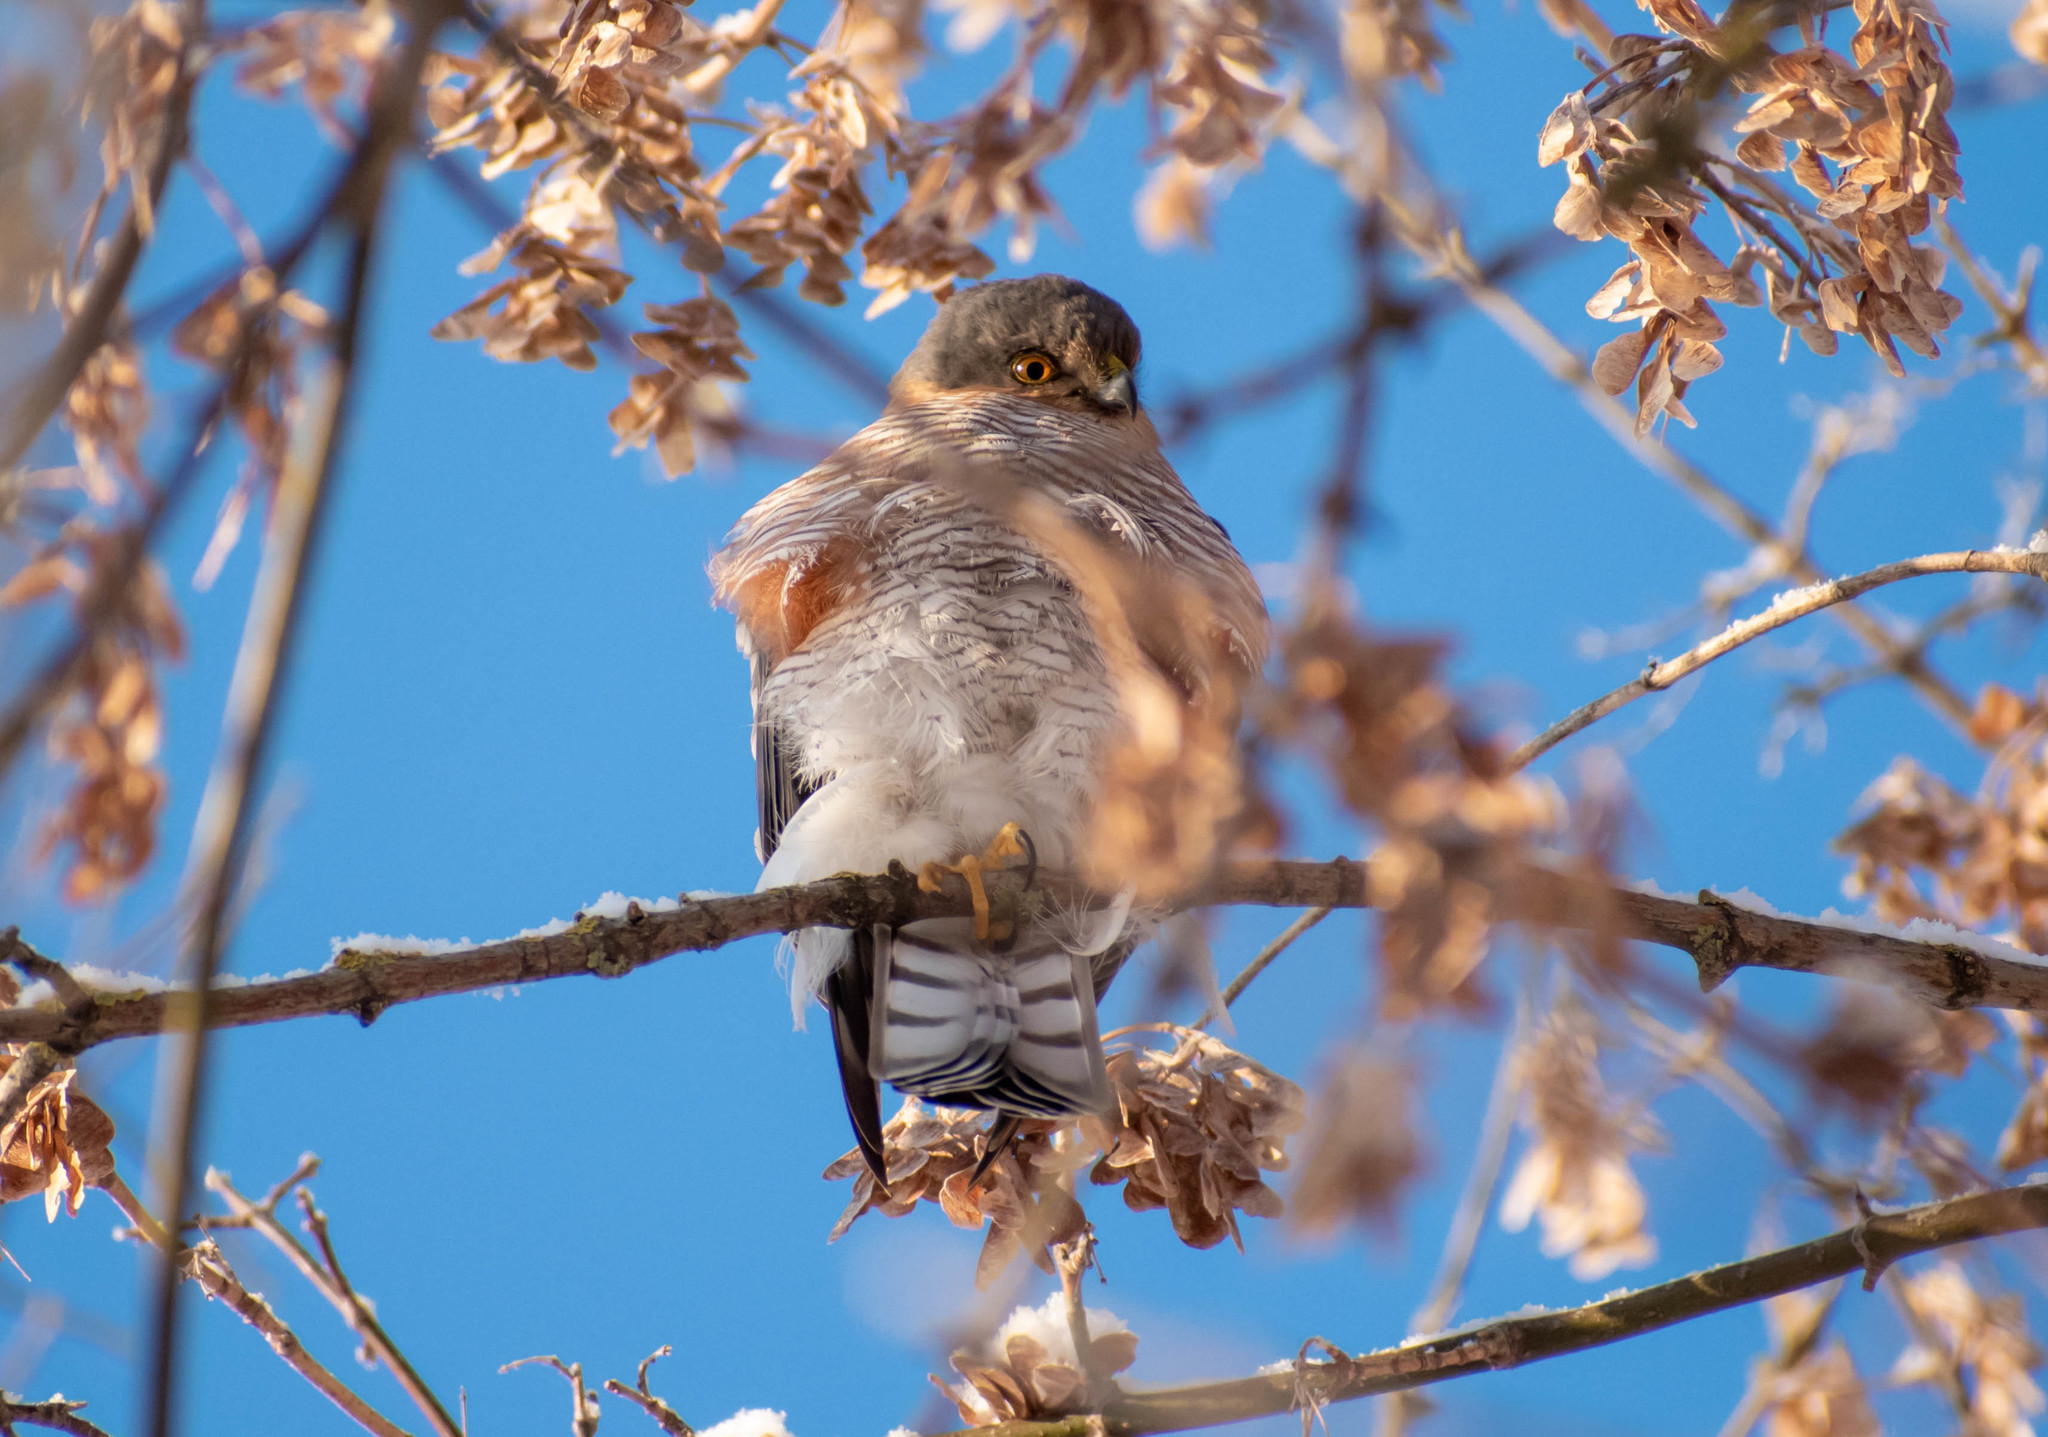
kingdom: Animalia
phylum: Chordata
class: Aves
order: Accipitriformes
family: Accipitridae
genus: Accipiter
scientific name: Accipiter nisus
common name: Eurasian sparrowhawk
